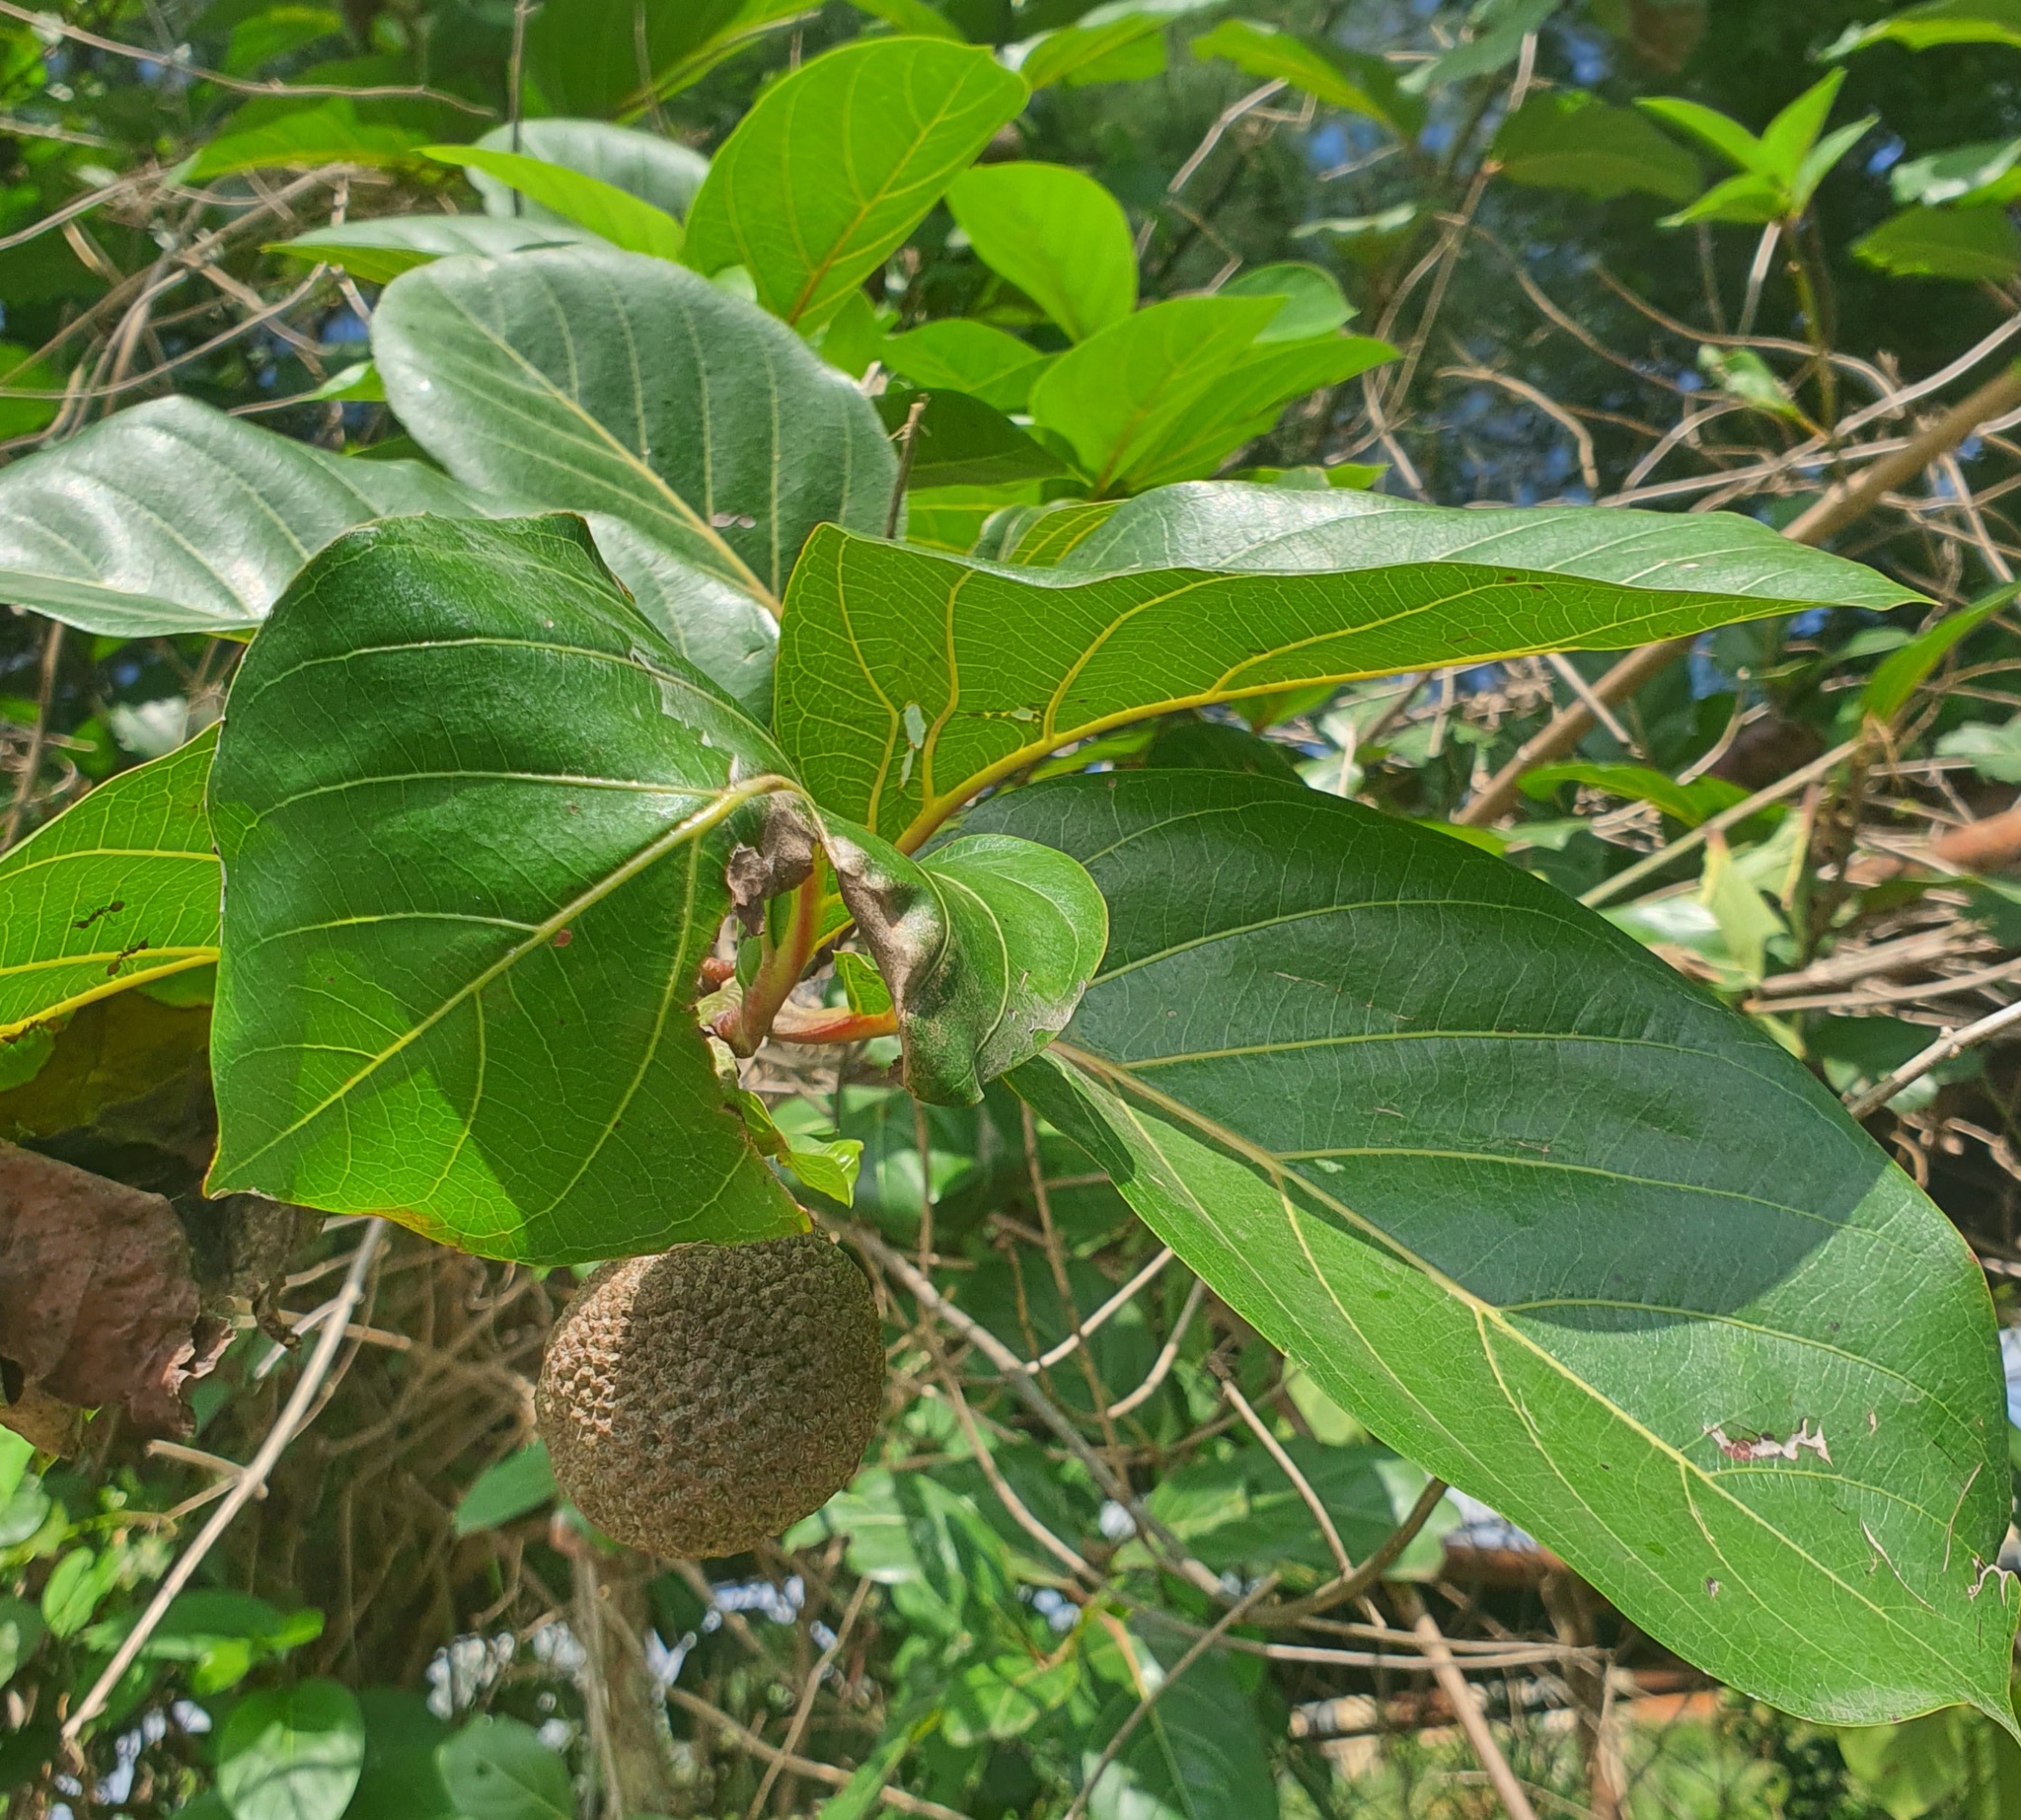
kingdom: Plantae
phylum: Tracheophyta
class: Magnoliopsida
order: Gentianales
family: Rubiaceae
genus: Nauclea
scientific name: Nauclea latifolia
